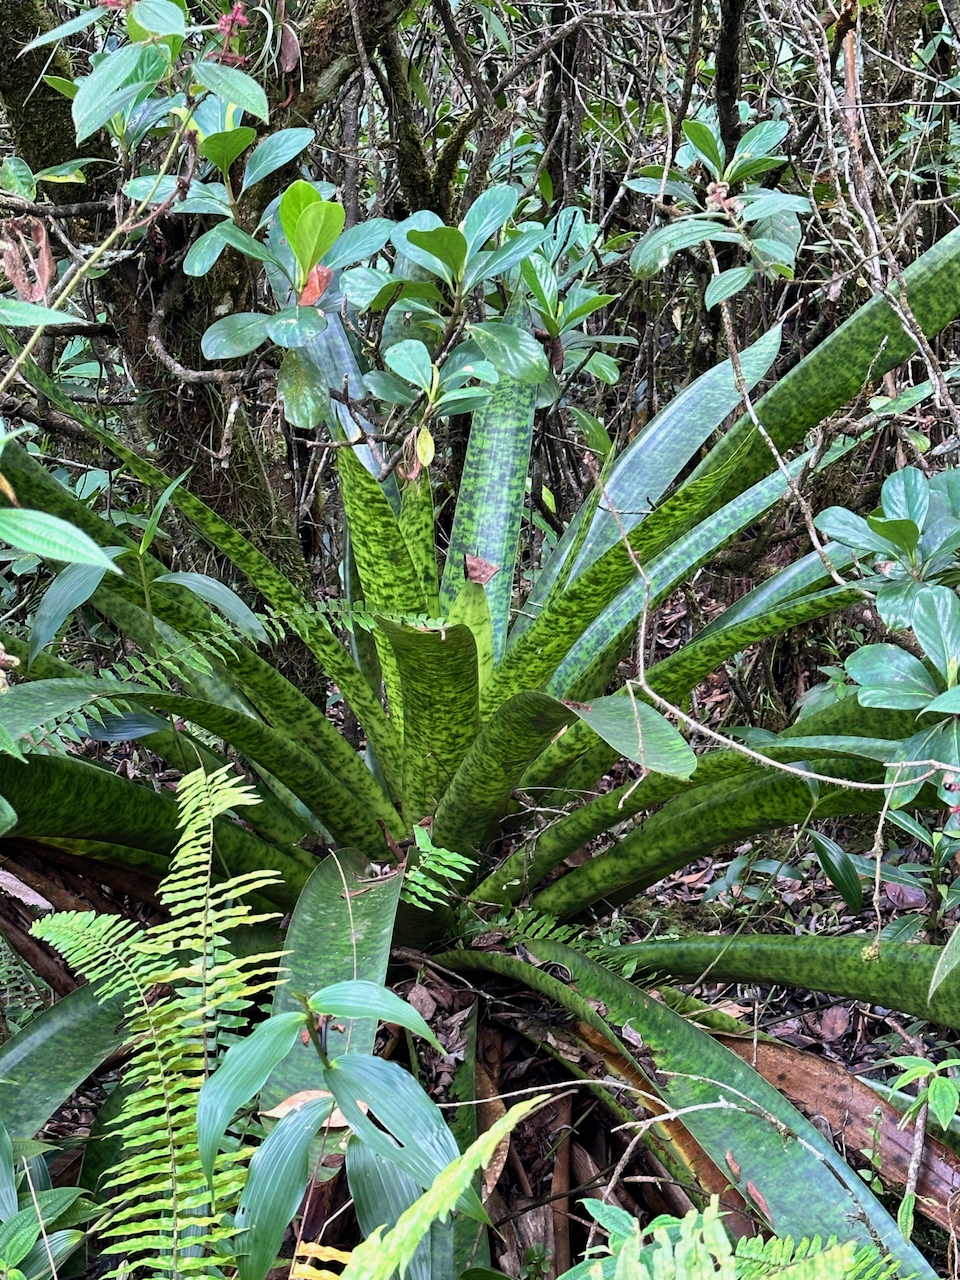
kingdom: Plantae
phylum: Tracheophyta
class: Liliopsida
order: Poales
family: Bromeliaceae
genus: Werauhia
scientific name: Werauhia kupperiana
